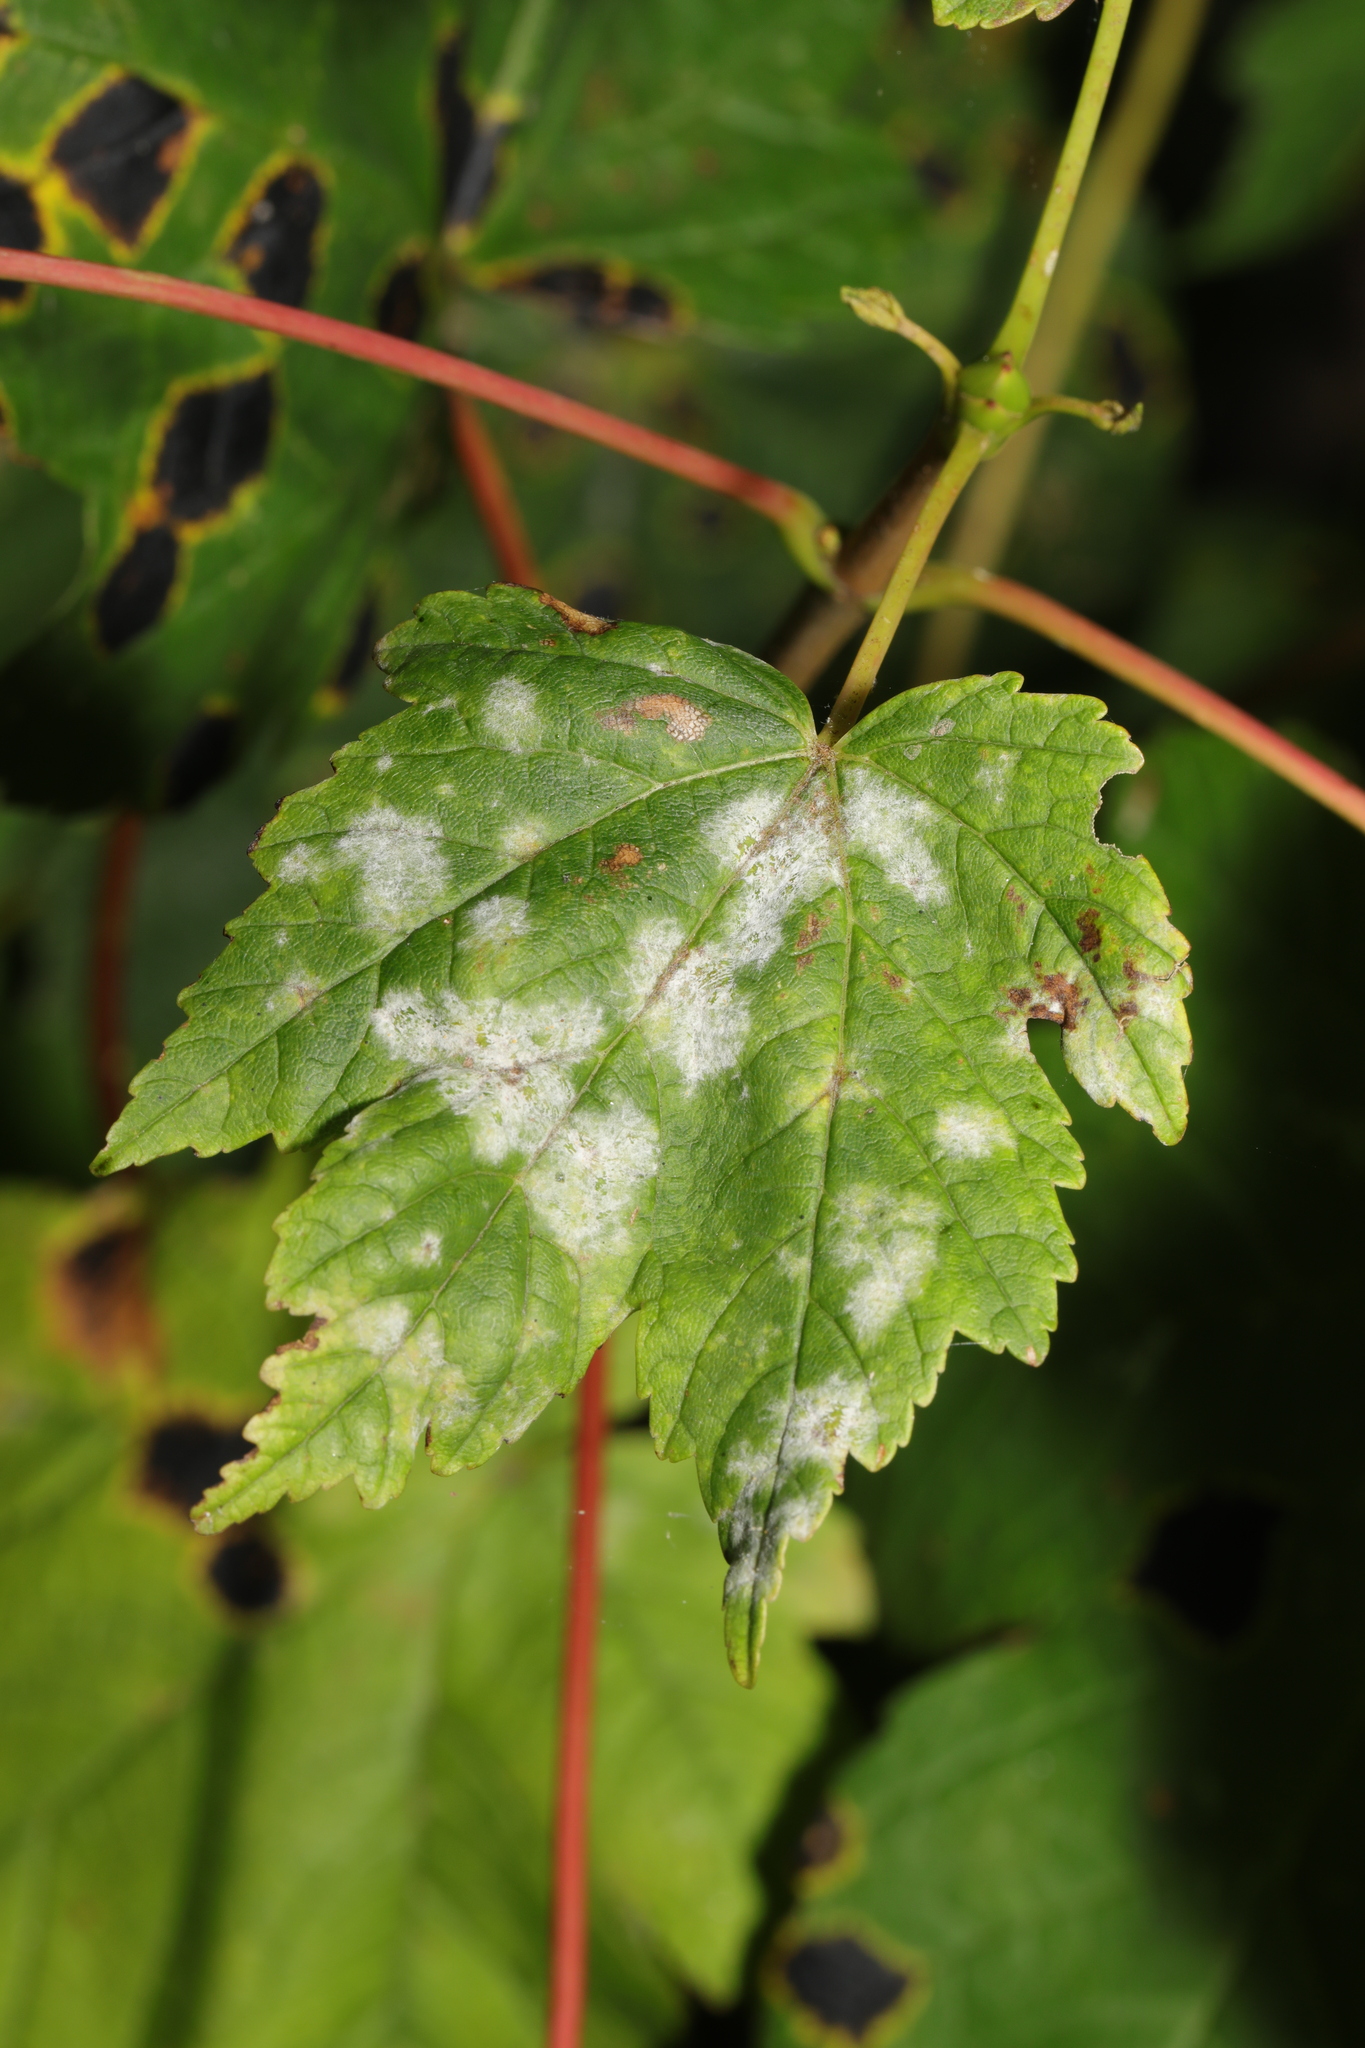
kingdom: Fungi
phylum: Ascomycota
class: Leotiomycetes
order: Helotiales
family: Erysiphaceae
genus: Sawadaea
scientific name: Sawadaea bicornis
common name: Maple mildew
